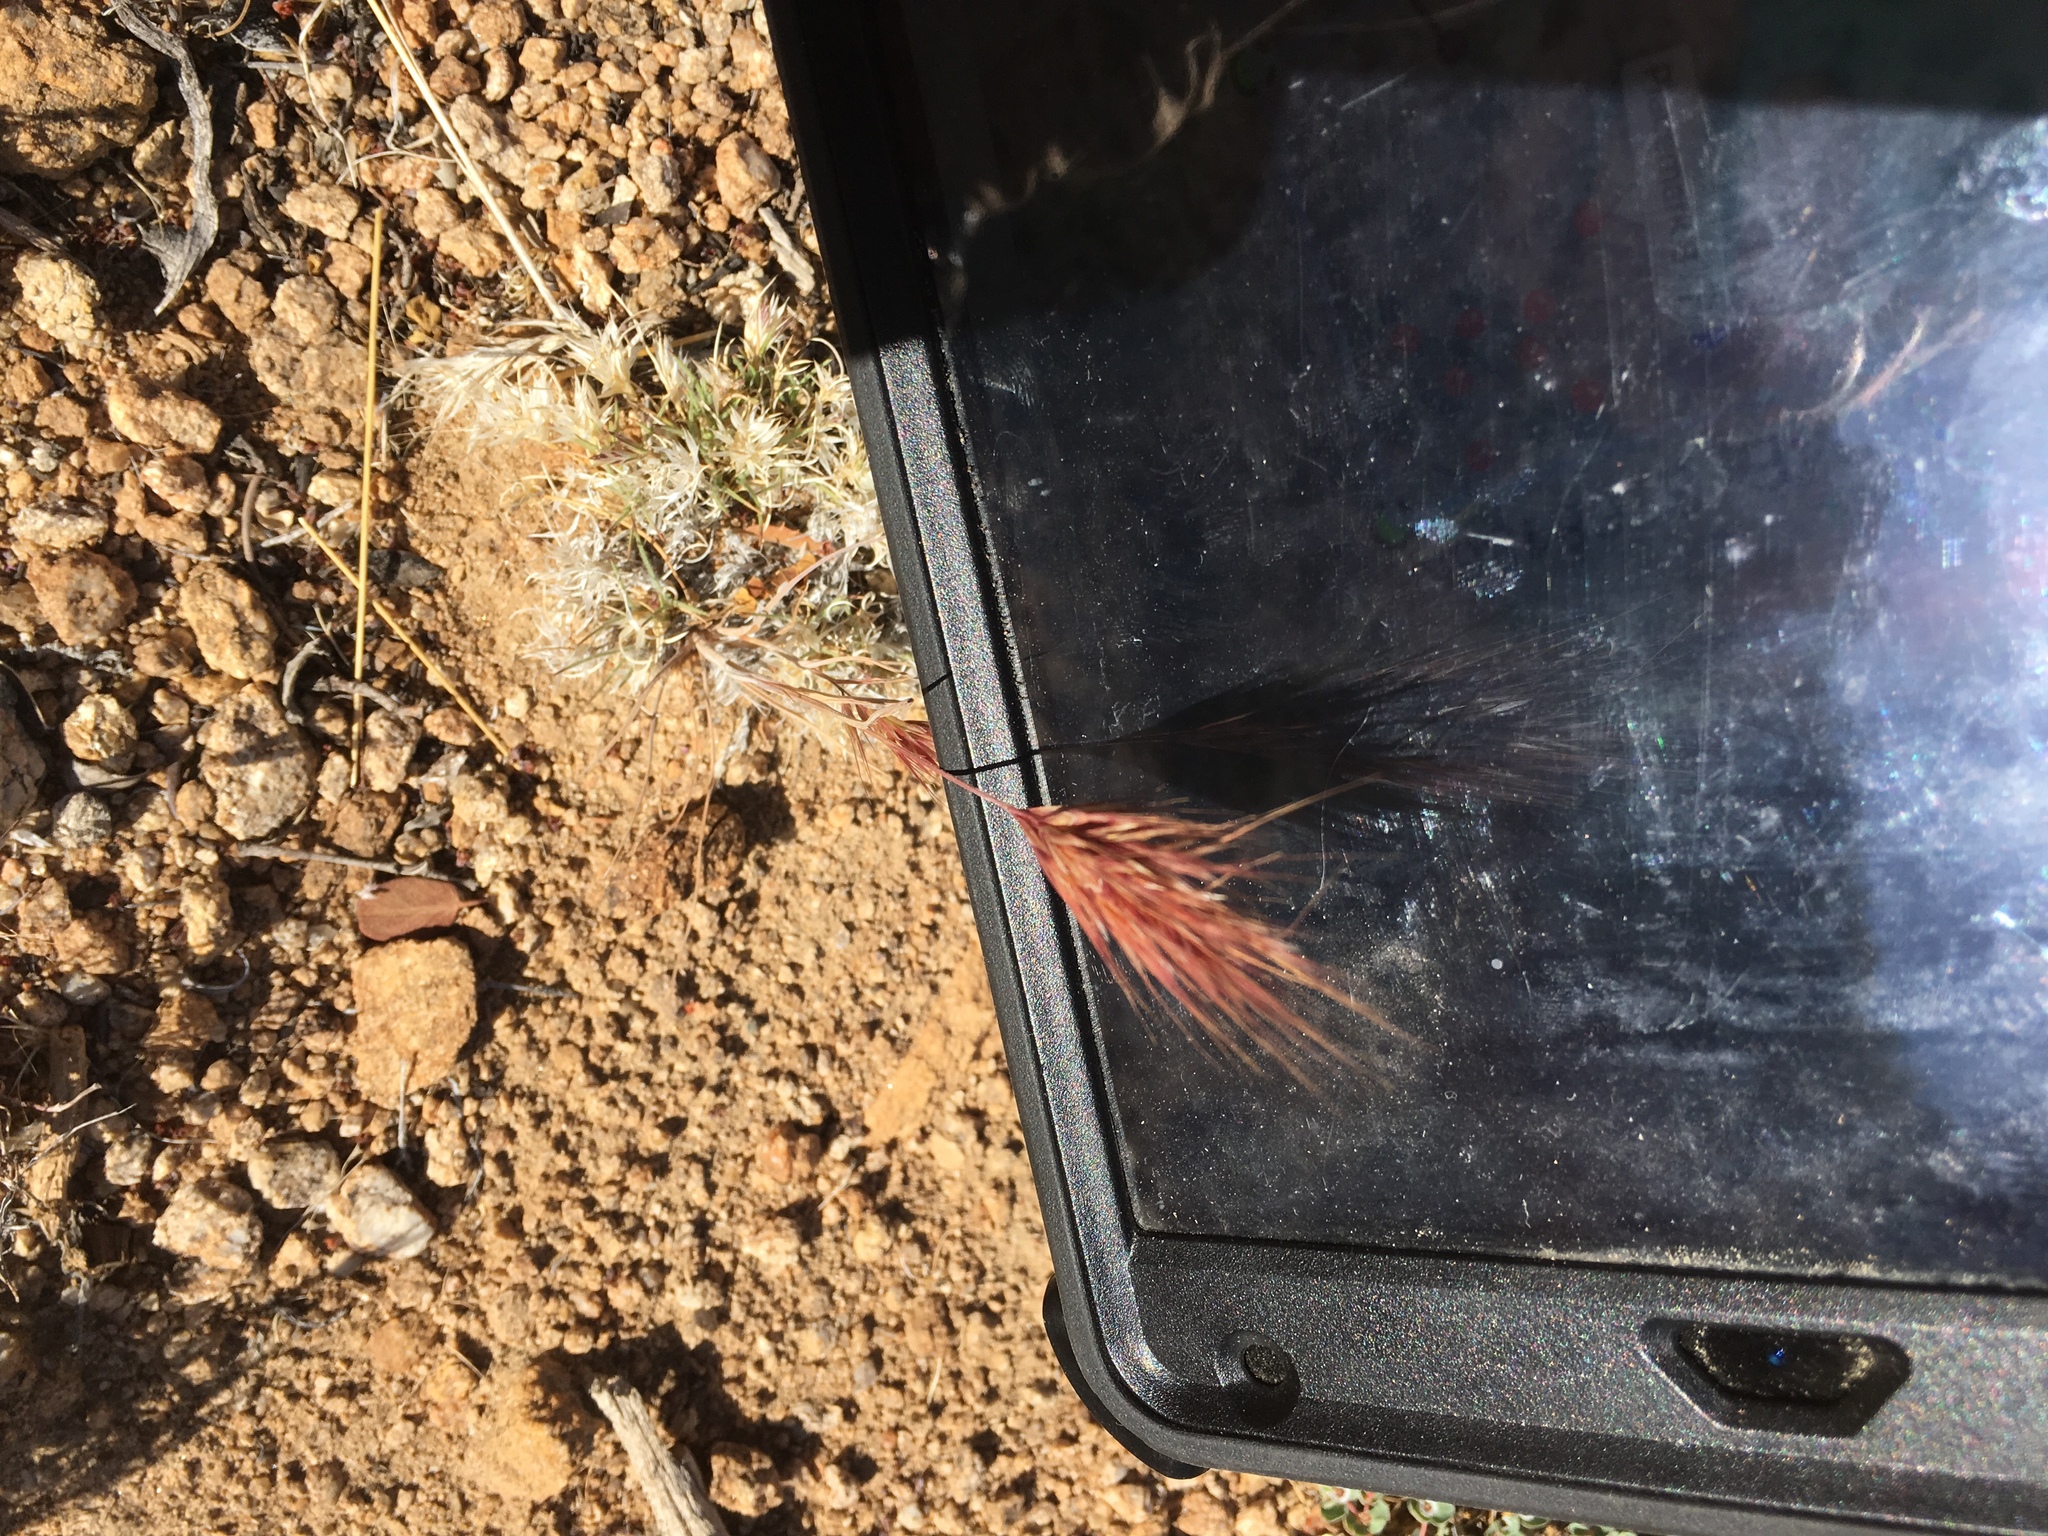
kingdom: Plantae
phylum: Tracheophyta
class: Liliopsida
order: Poales
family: Poaceae
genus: Bromus
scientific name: Bromus rubens
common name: Red brome
